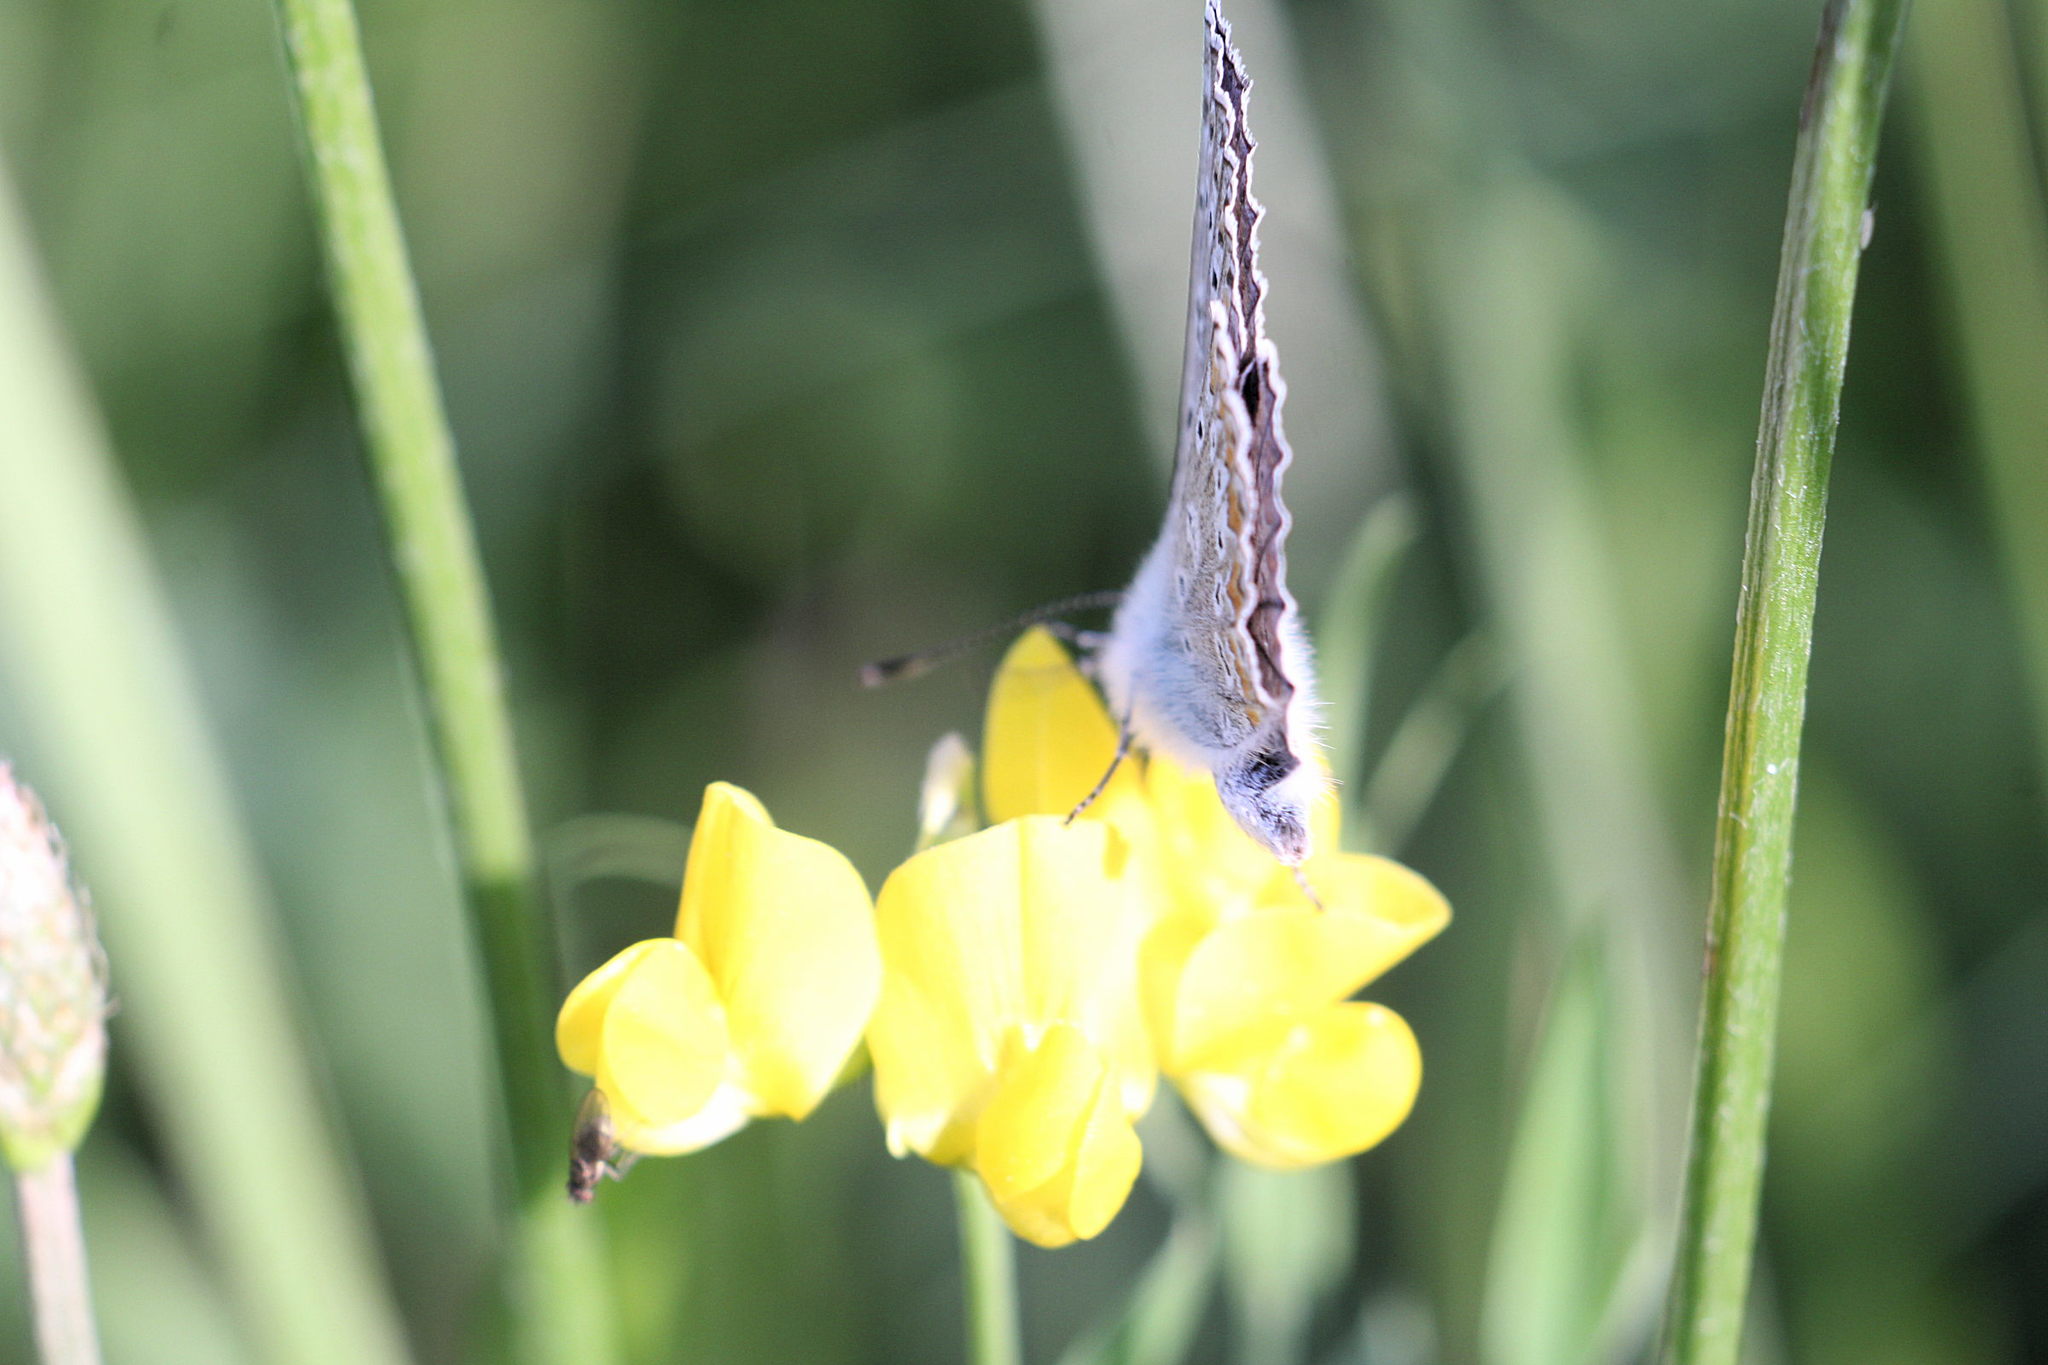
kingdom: Animalia
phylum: Arthropoda
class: Insecta
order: Lepidoptera
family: Lycaenidae
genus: Polyommatus
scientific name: Polyommatus icarus
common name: Common blue
